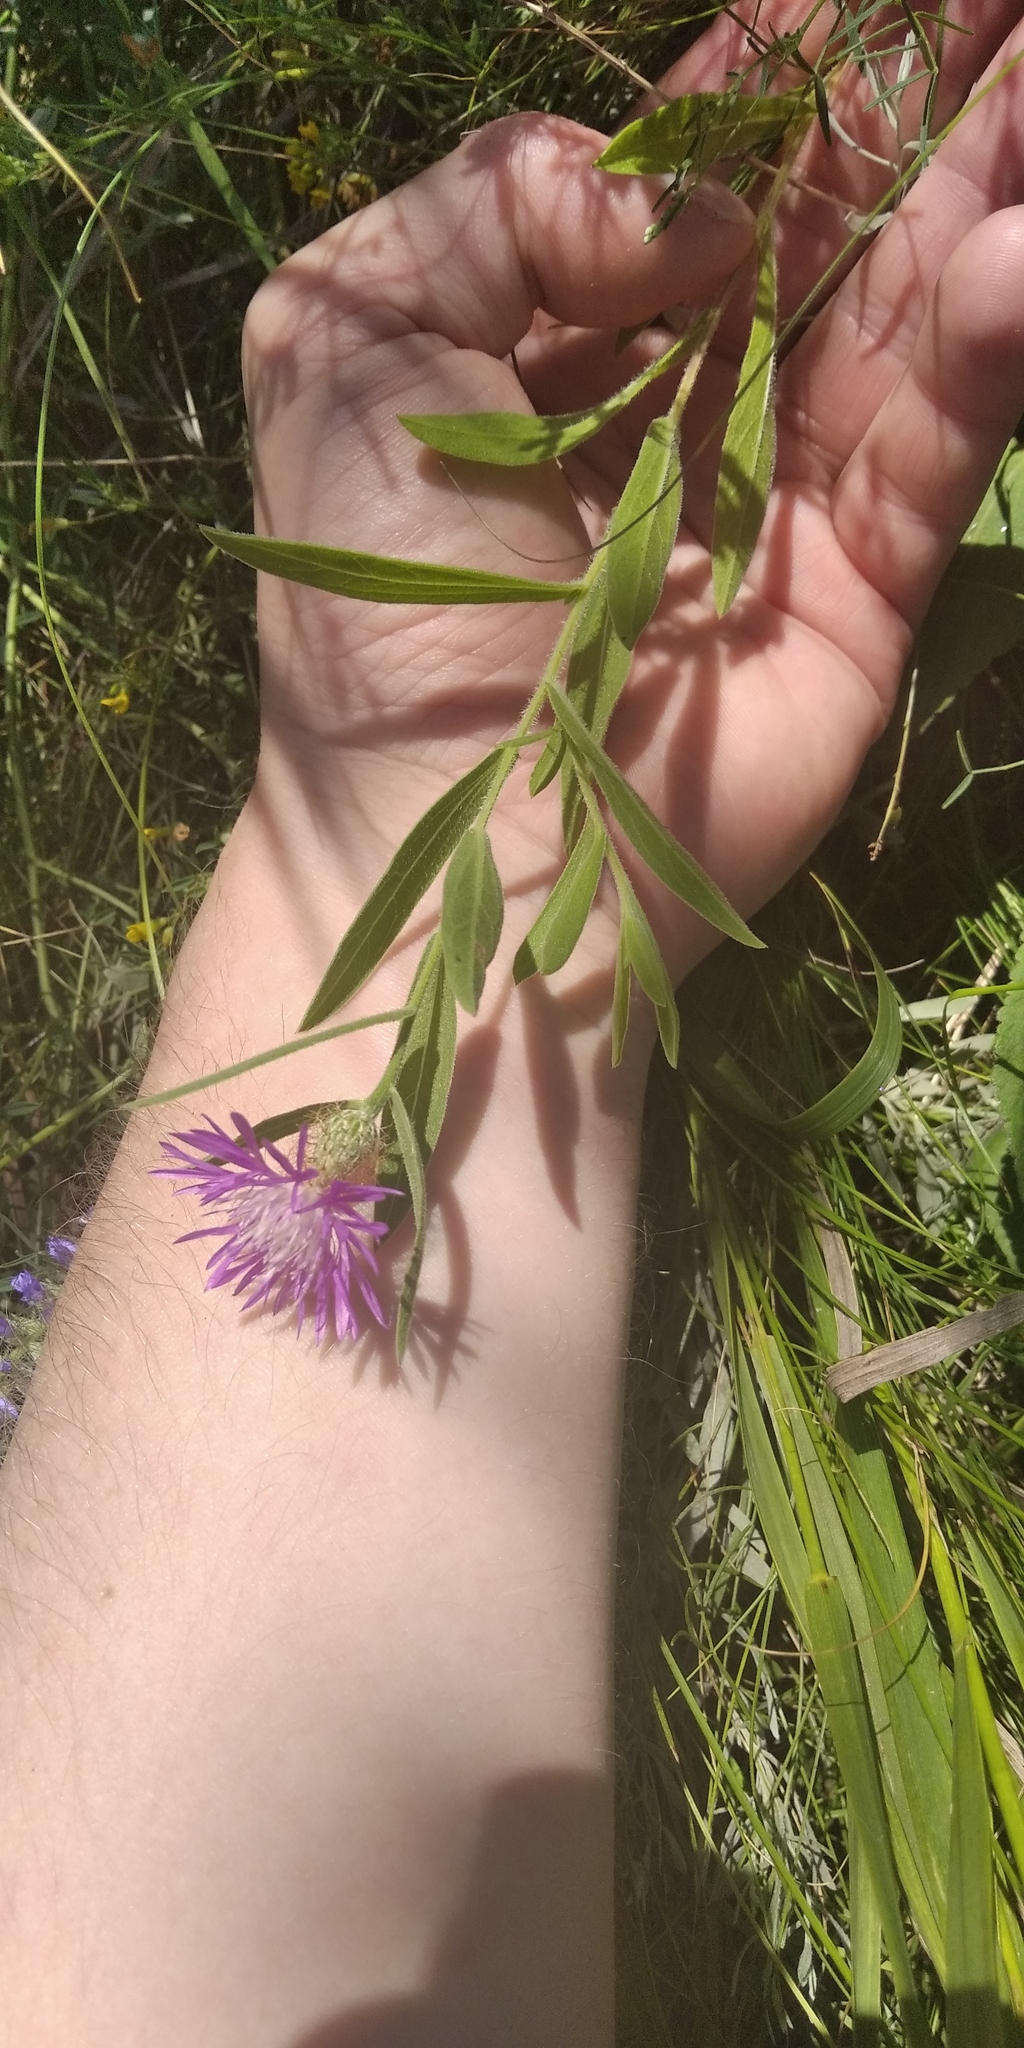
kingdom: Plantae
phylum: Tracheophyta
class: Magnoliopsida
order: Asterales
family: Asteraceae
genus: Psephellus
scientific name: Psephellus trinervius
